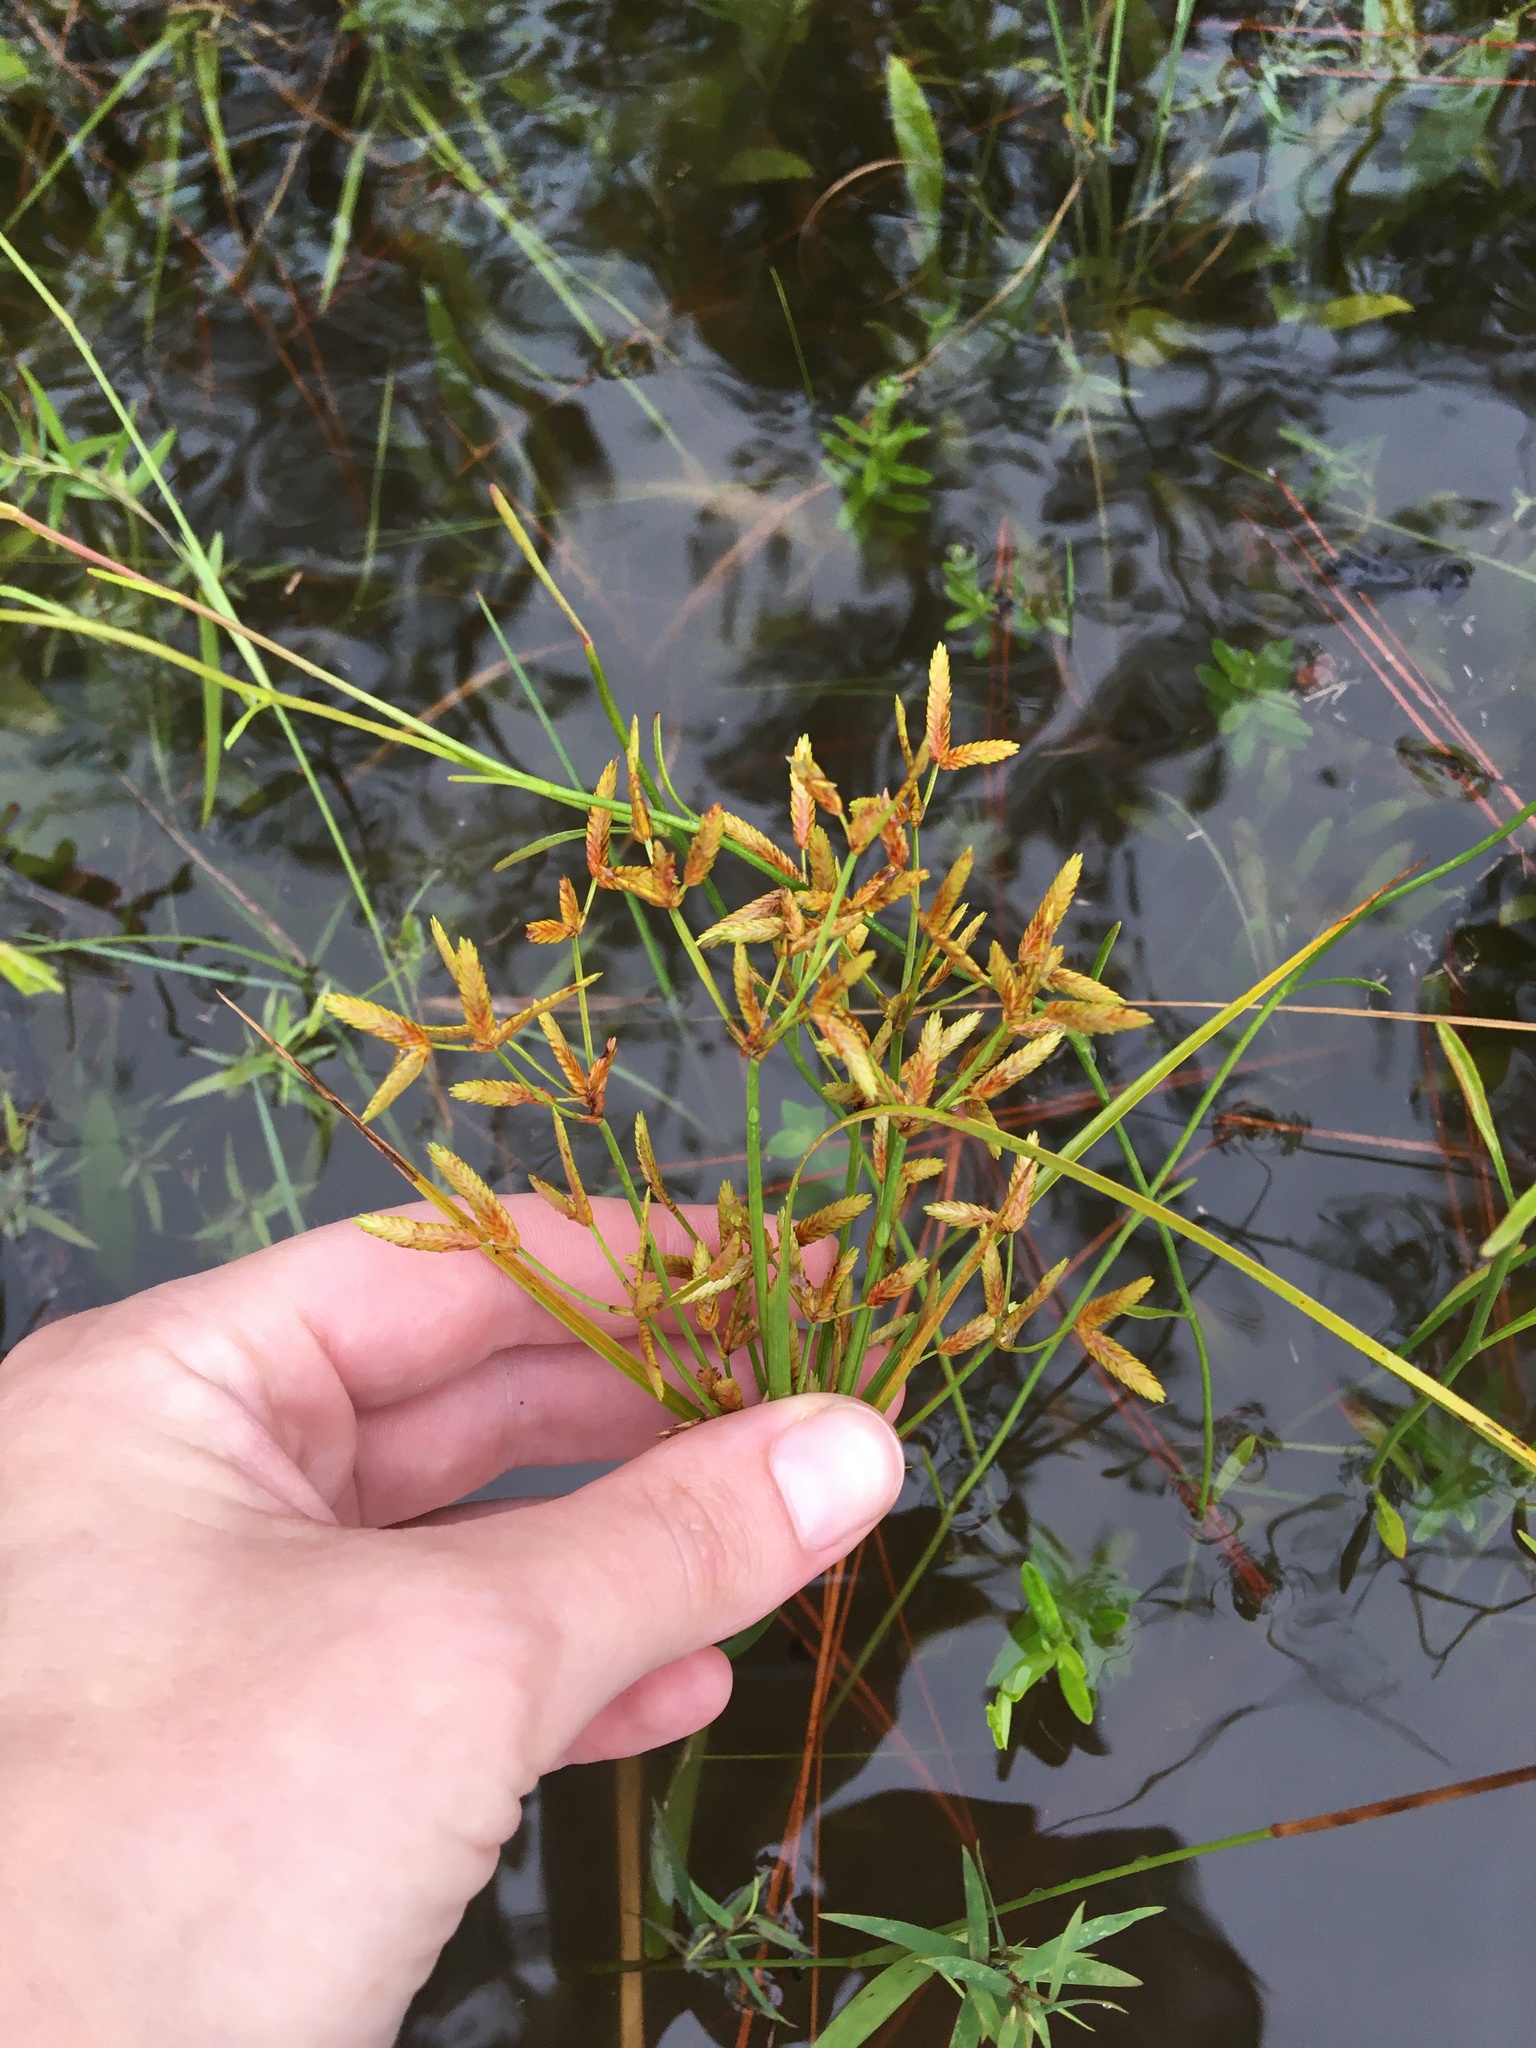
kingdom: Plantae
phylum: Tracheophyta
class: Liliopsida
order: Poales
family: Cyperaceae
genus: Cyperus
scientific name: Cyperus lecontei
